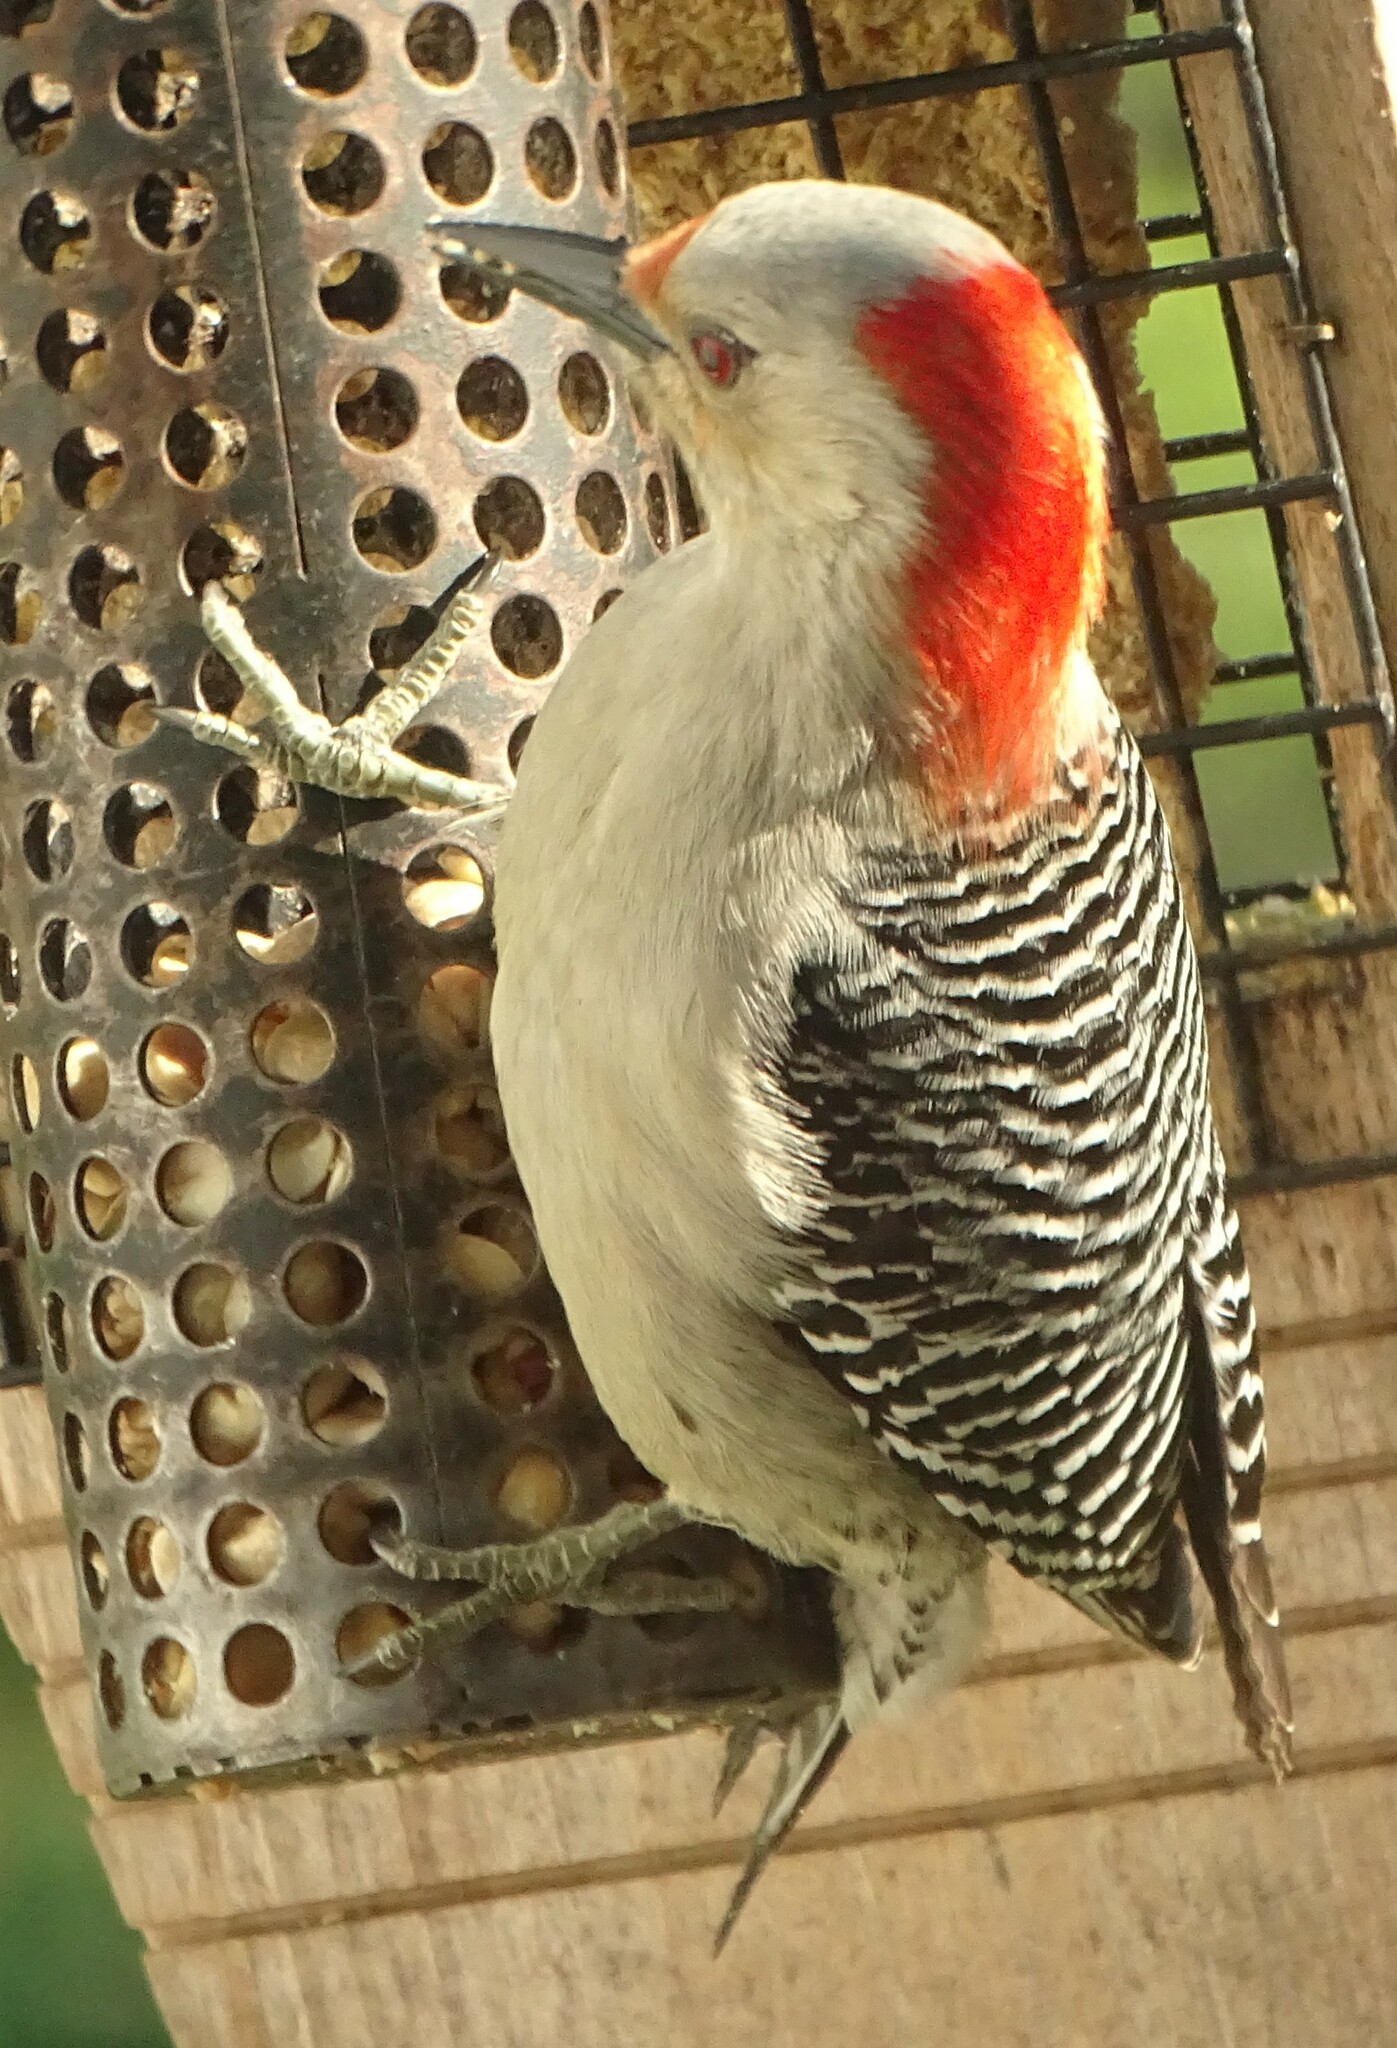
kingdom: Animalia
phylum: Chordata
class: Aves
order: Piciformes
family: Picidae
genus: Melanerpes
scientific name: Melanerpes carolinus
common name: Red-bellied woodpecker
